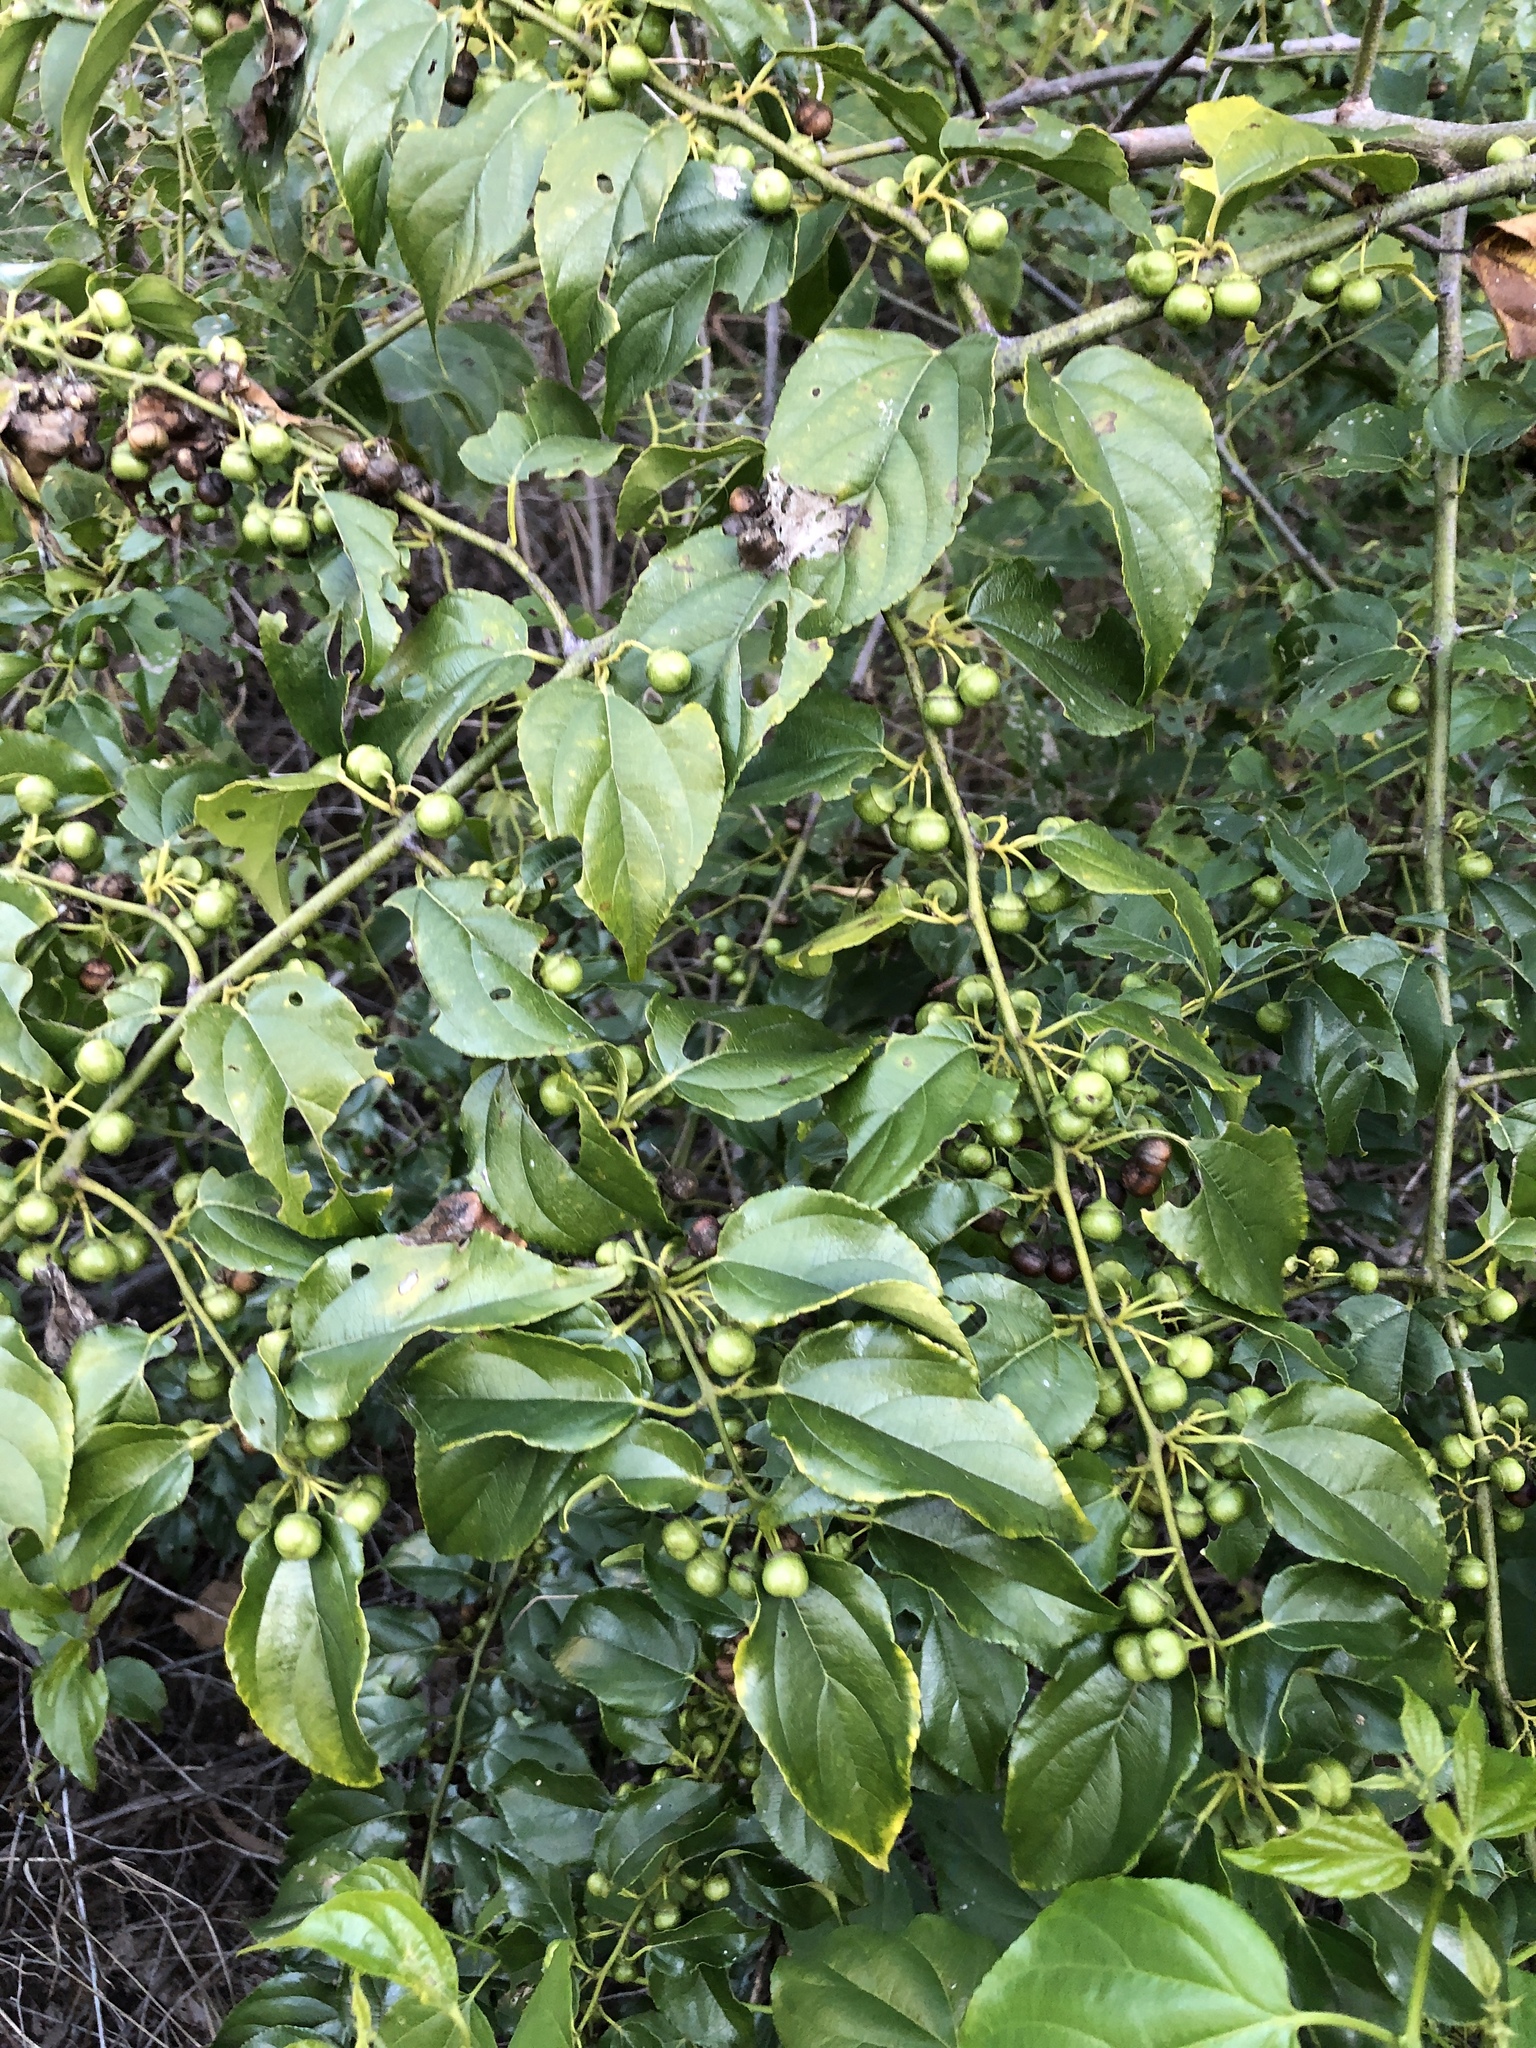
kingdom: Plantae
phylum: Tracheophyta
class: Magnoliopsida
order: Rosales
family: Rhamnaceae
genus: Colubrina
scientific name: Colubrina asiatica
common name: Asian nakedwood
